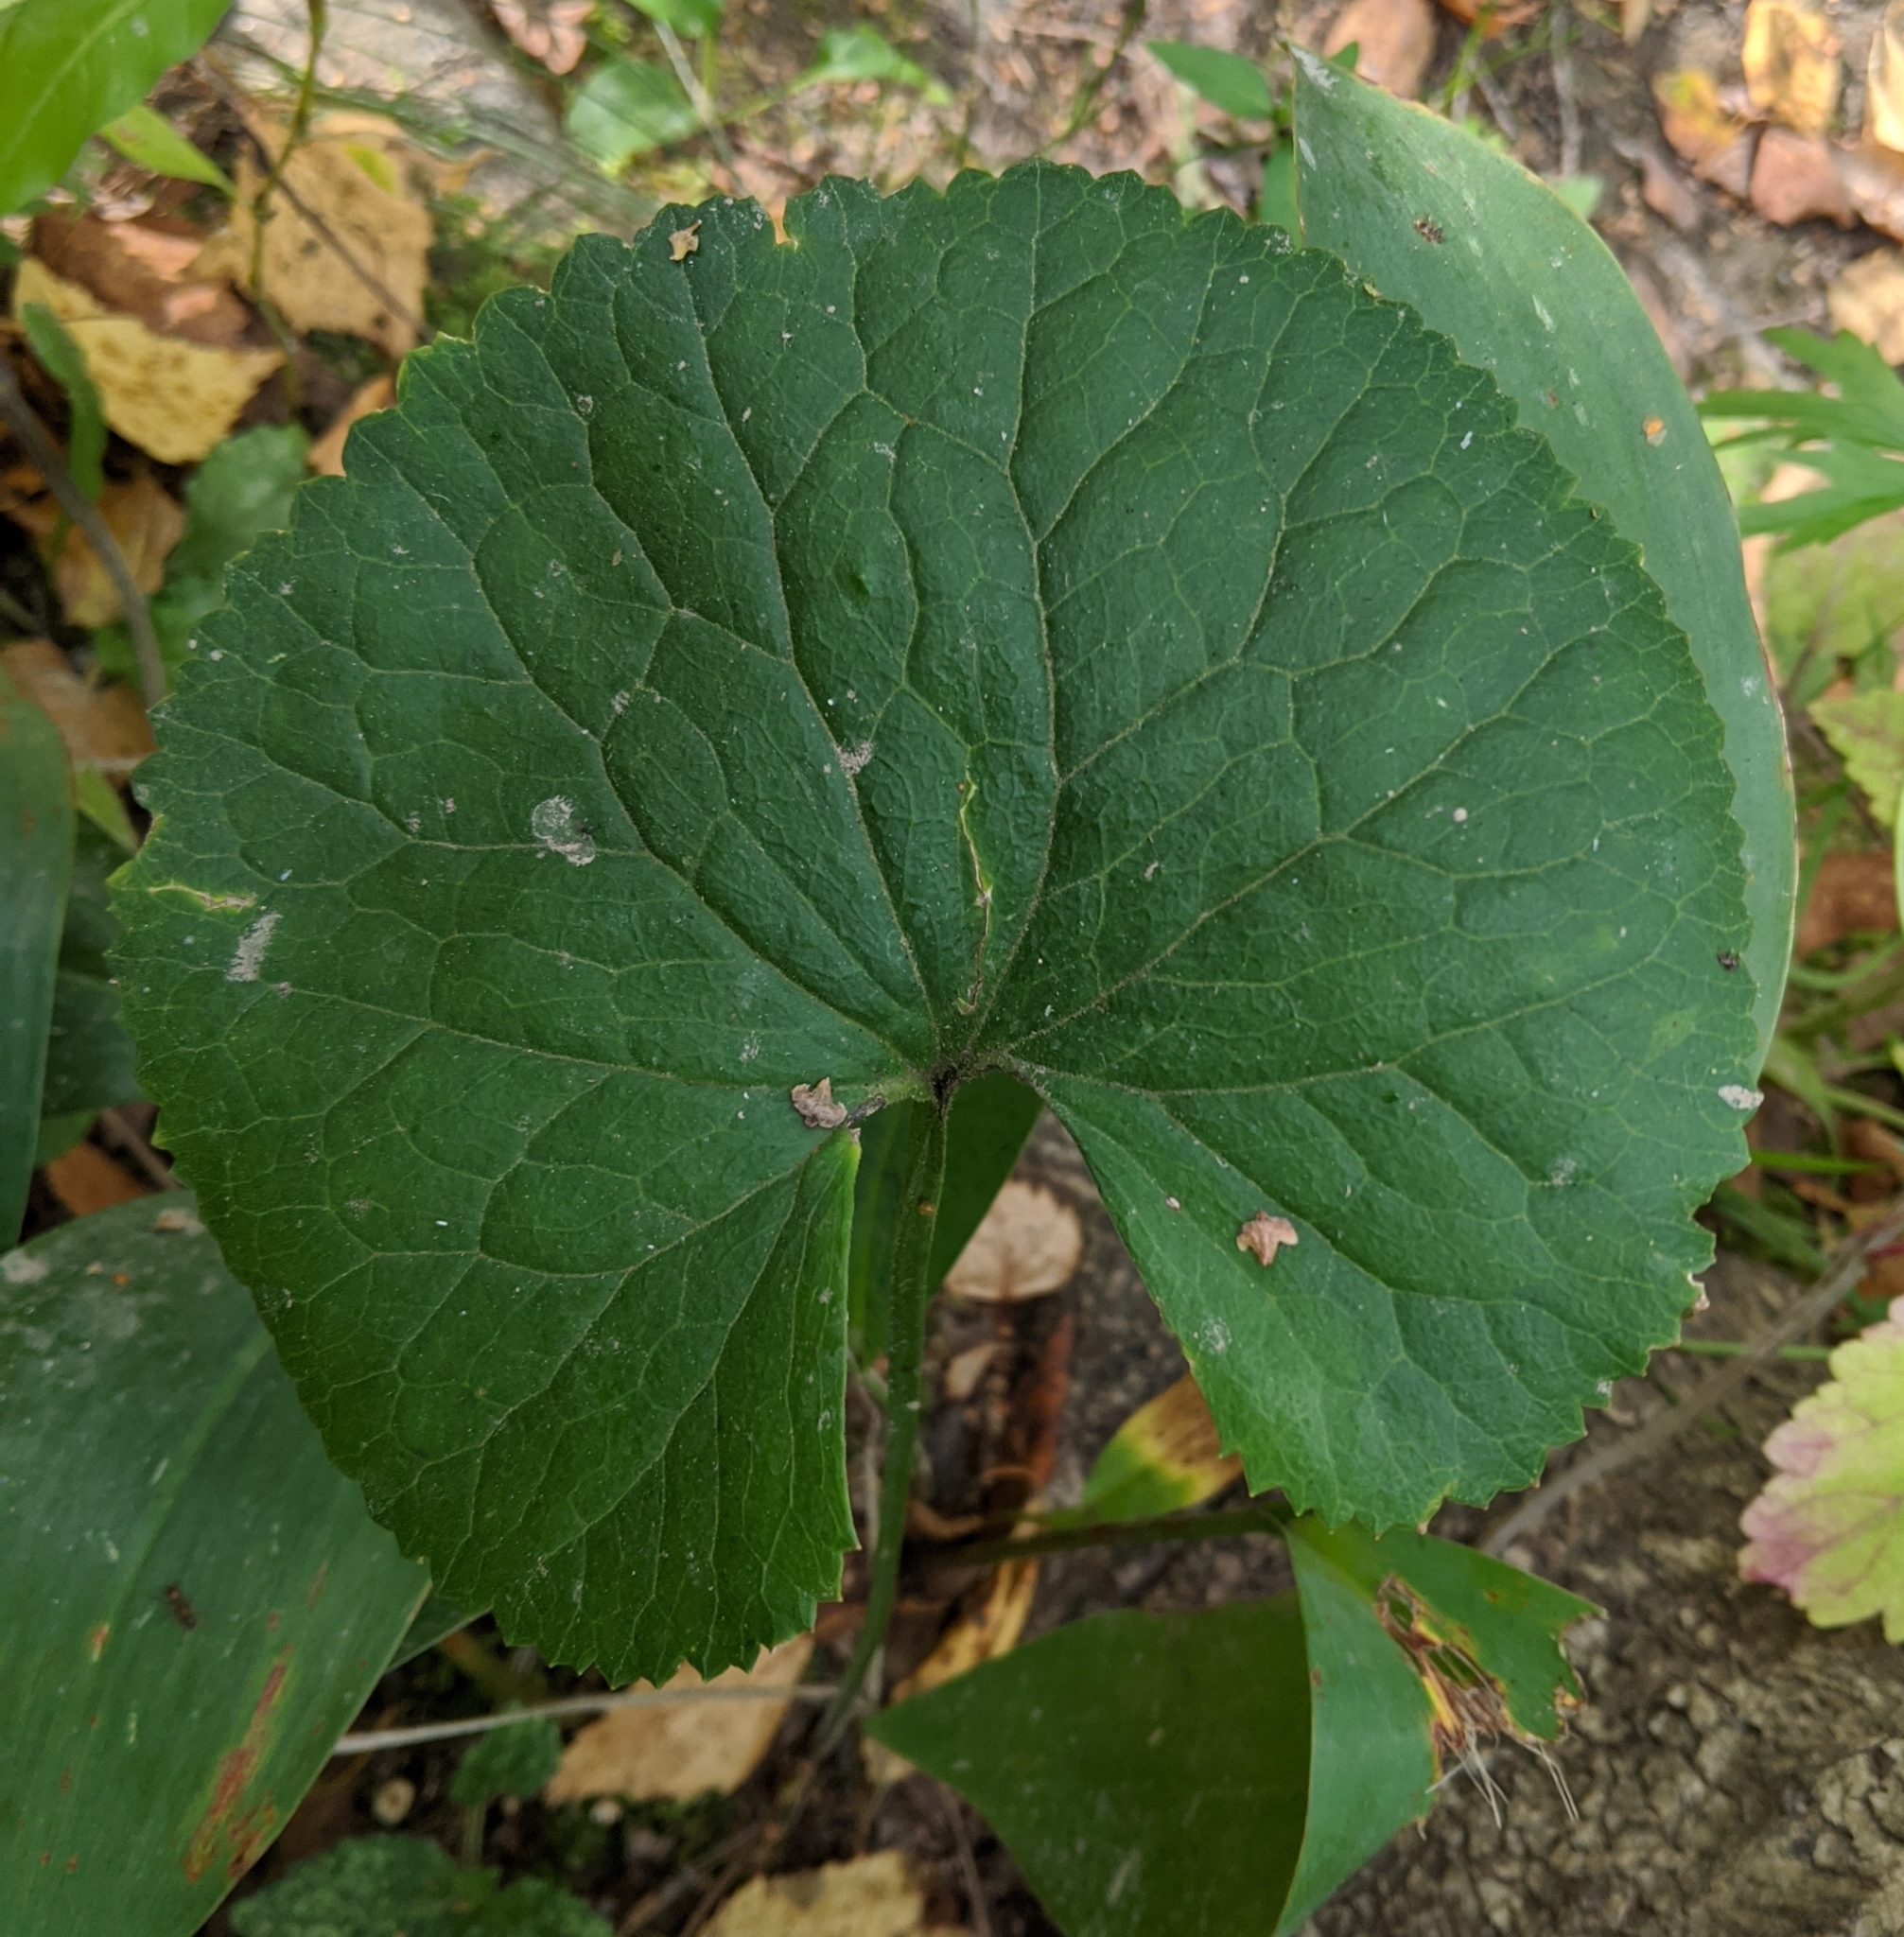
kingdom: Plantae
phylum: Tracheophyta
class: Magnoliopsida
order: Ranunculales
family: Ranunculaceae
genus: Ranunculus
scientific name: Ranunculus cassubicus
